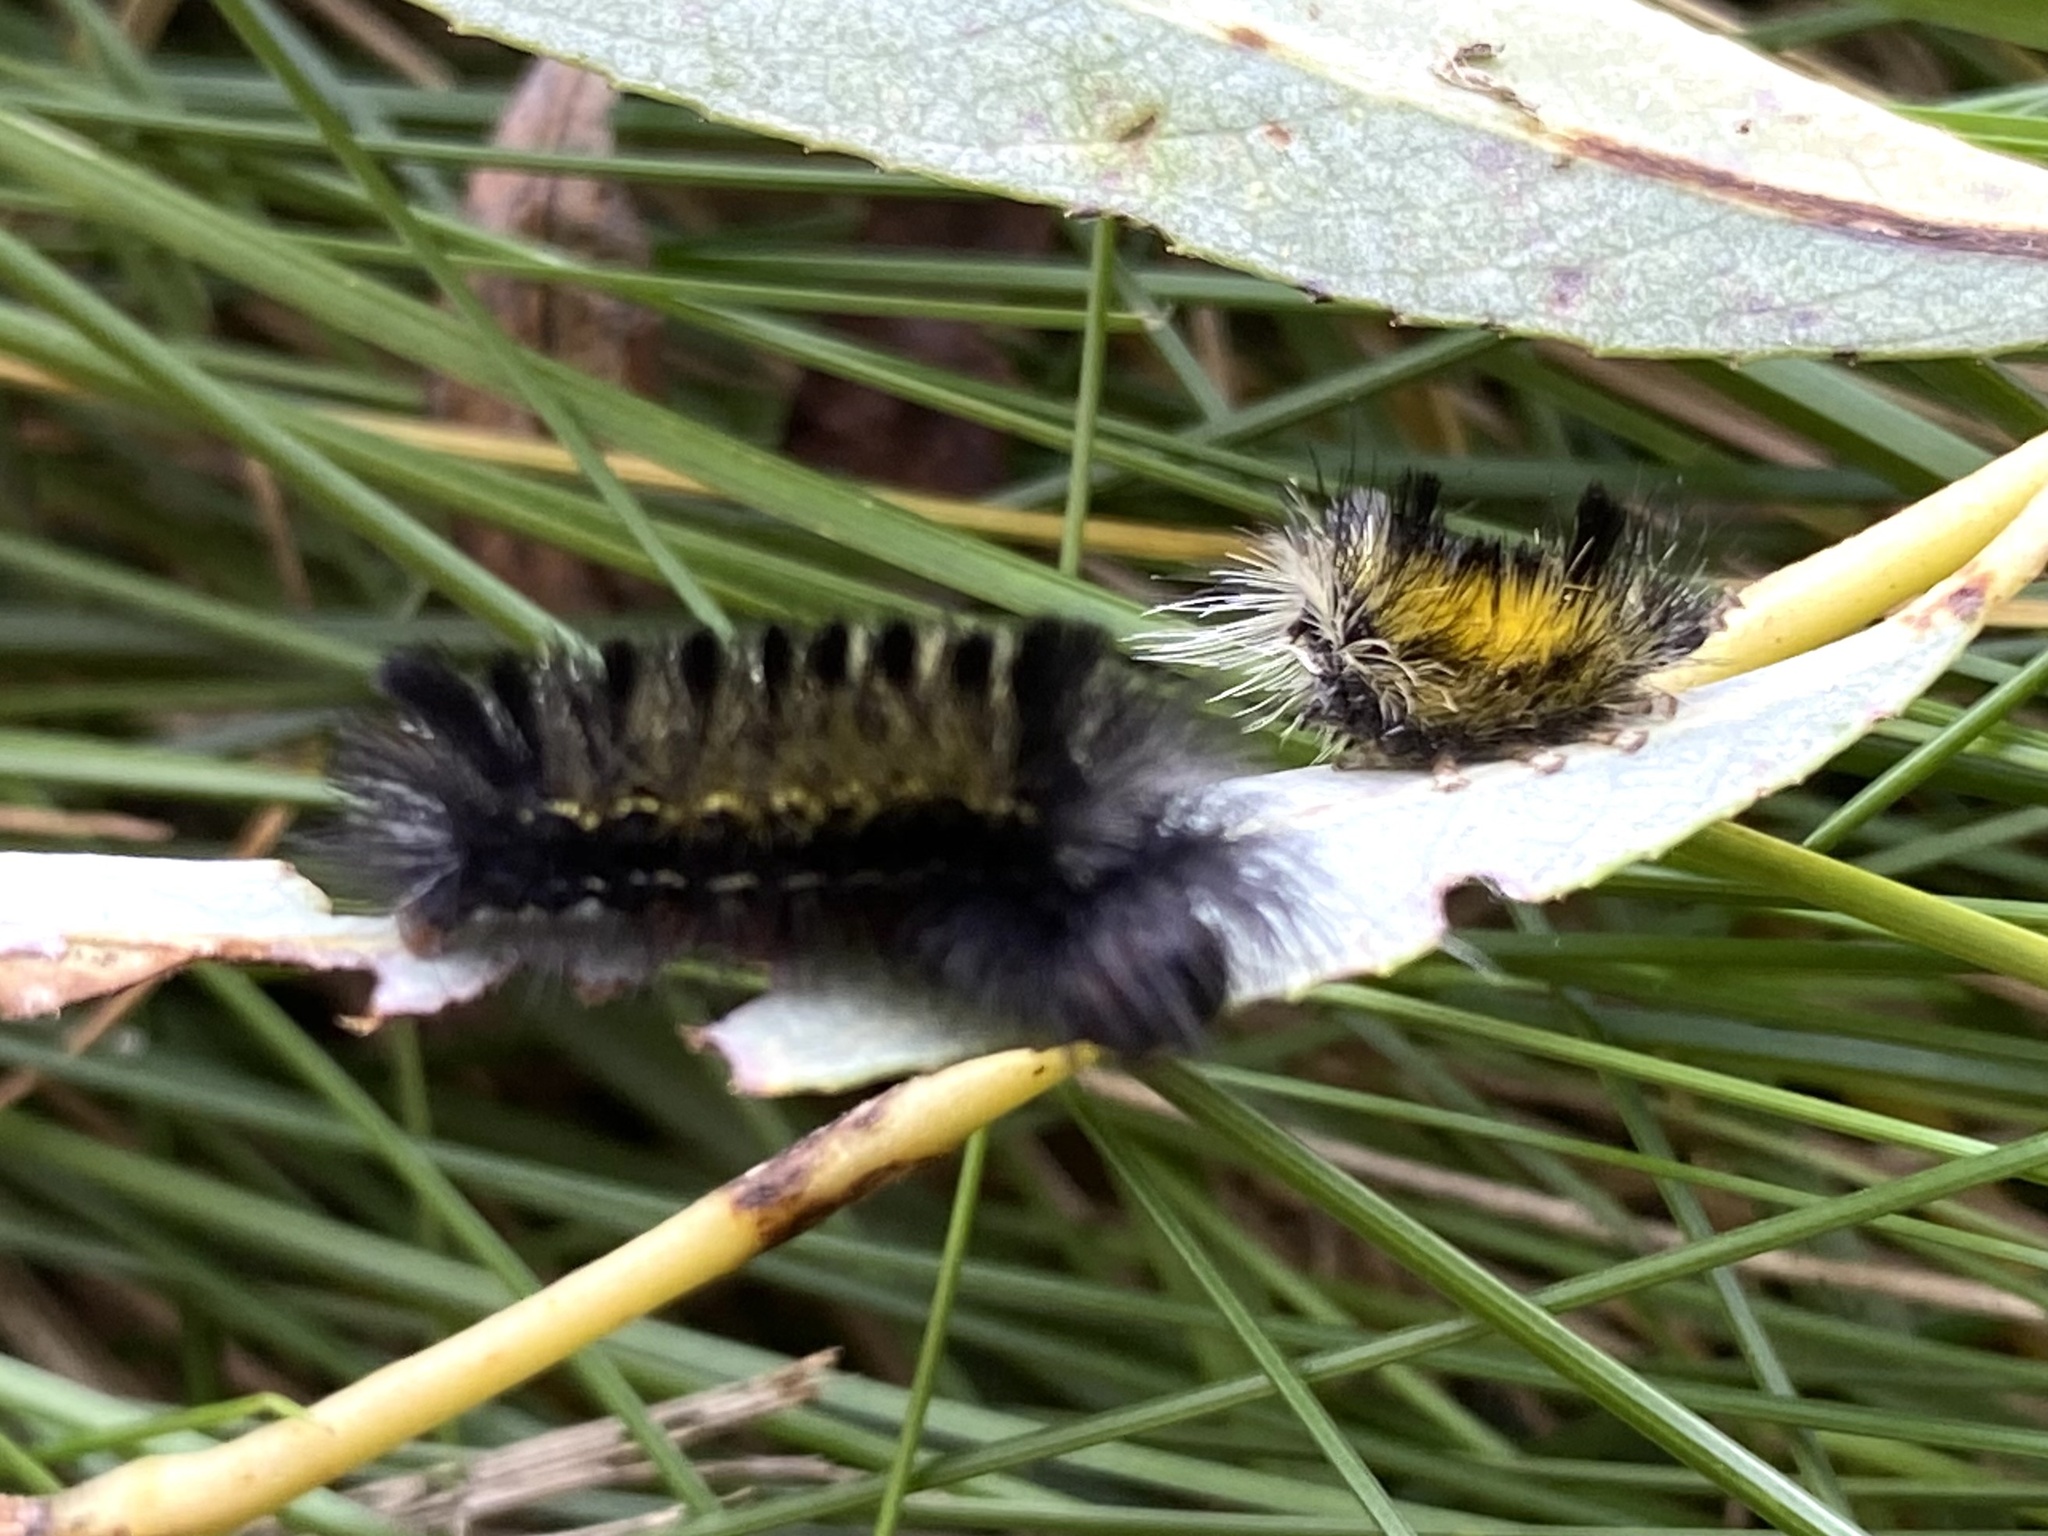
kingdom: Animalia
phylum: Arthropoda
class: Insecta
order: Lepidoptera
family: Erebidae
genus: Ctenucha
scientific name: Ctenucha virginica
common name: Virginia ctenucha moth
